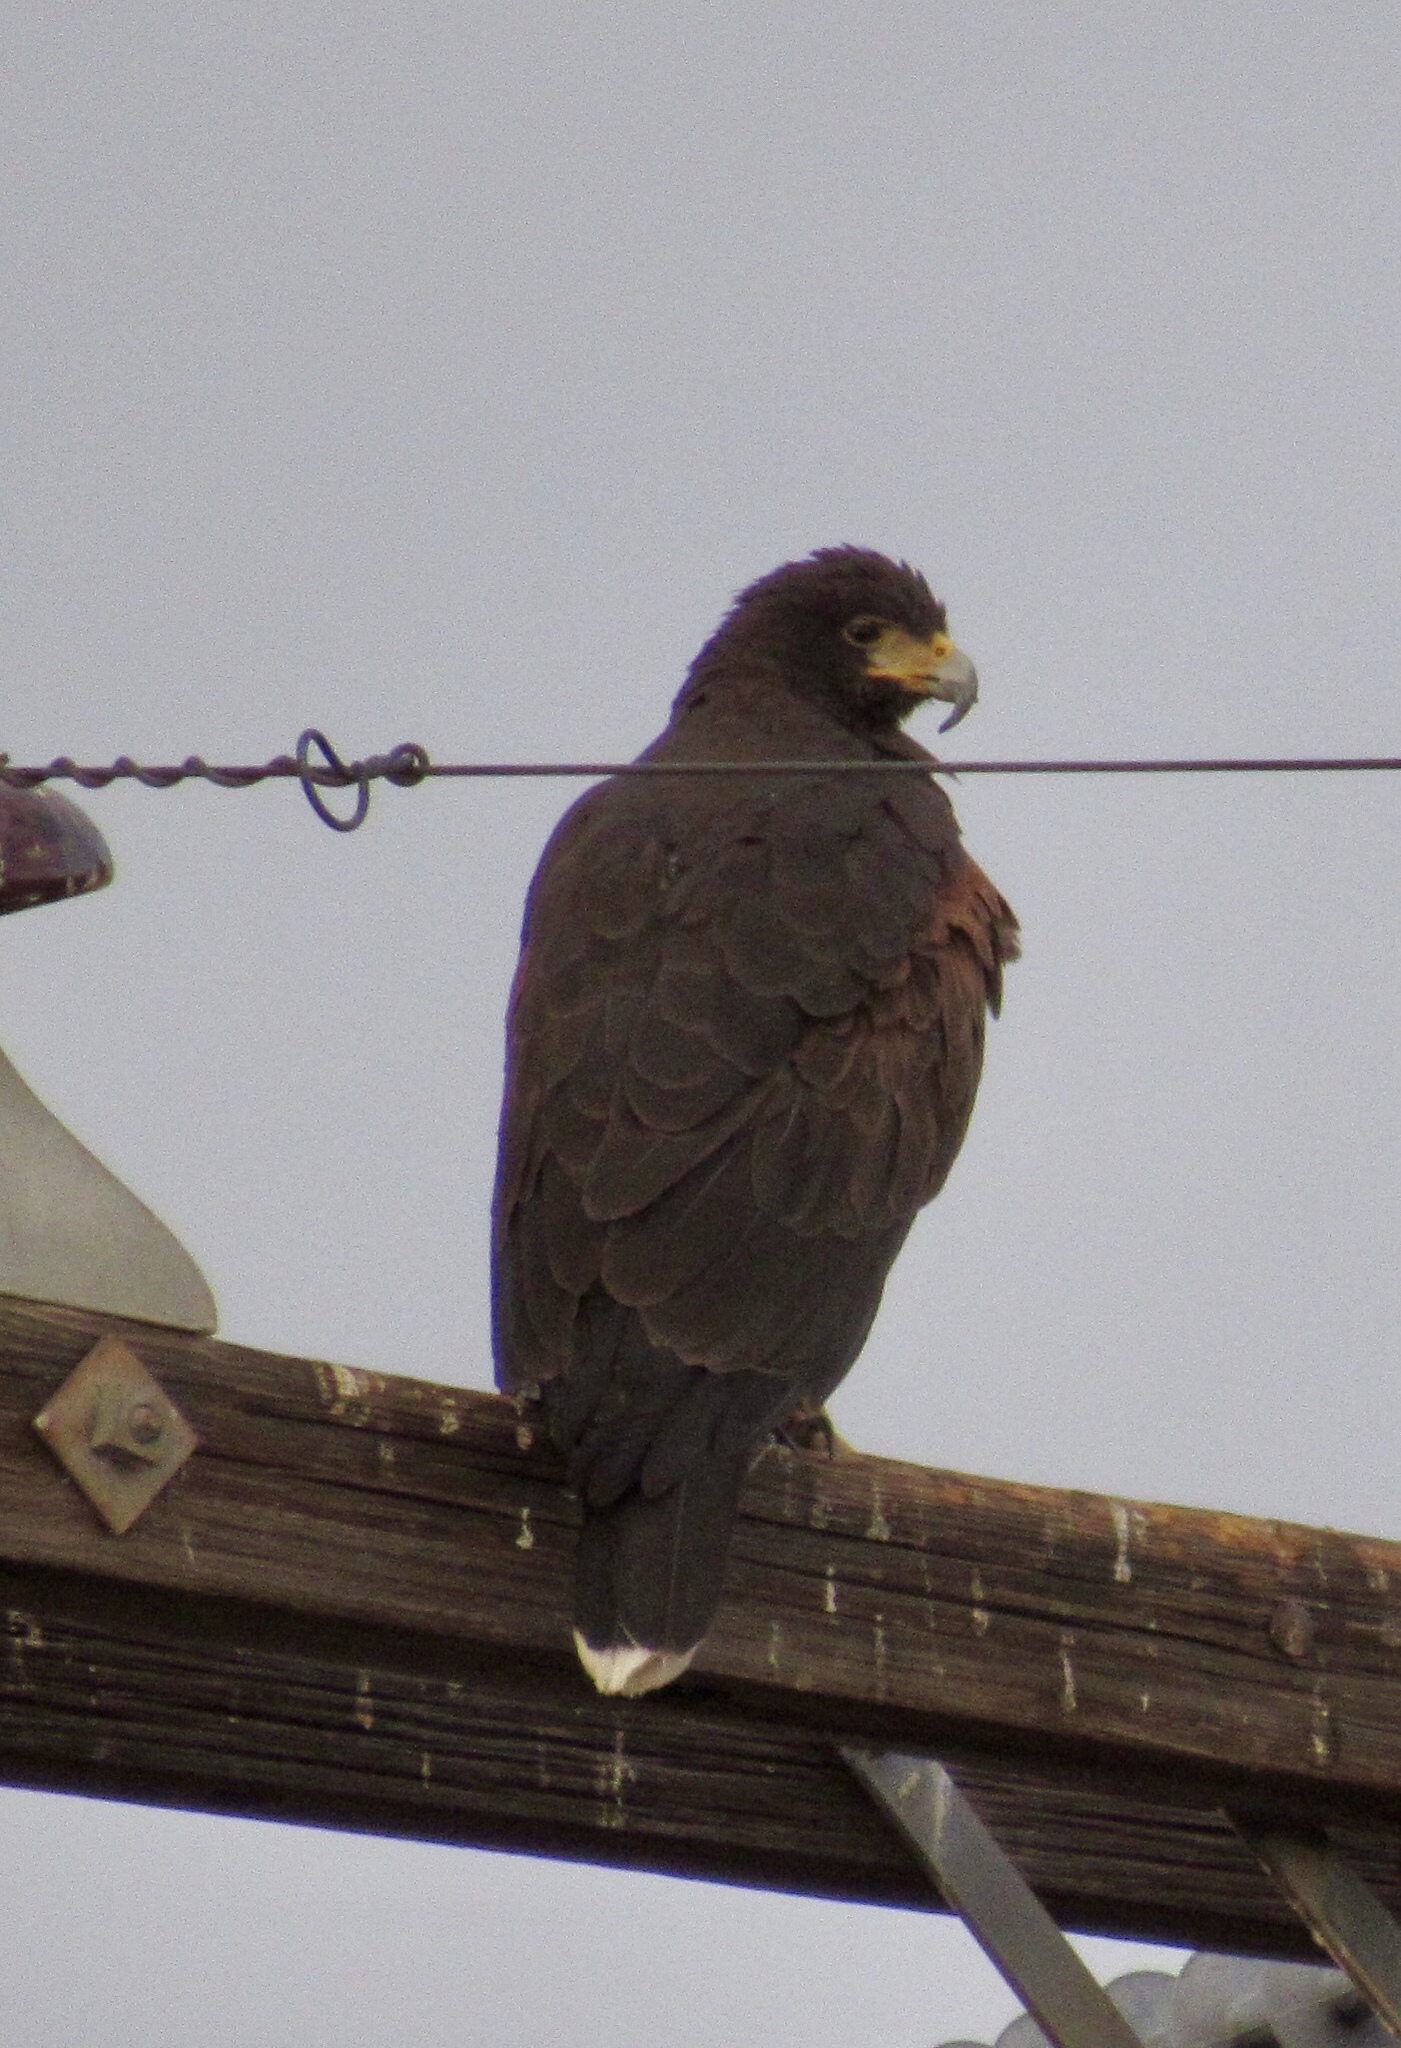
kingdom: Animalia
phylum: Chordata
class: Aves
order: Accipitriformes
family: Accipitridae
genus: Parabuteo
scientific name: Parabuteo unicinctus
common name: Harris's hawk
